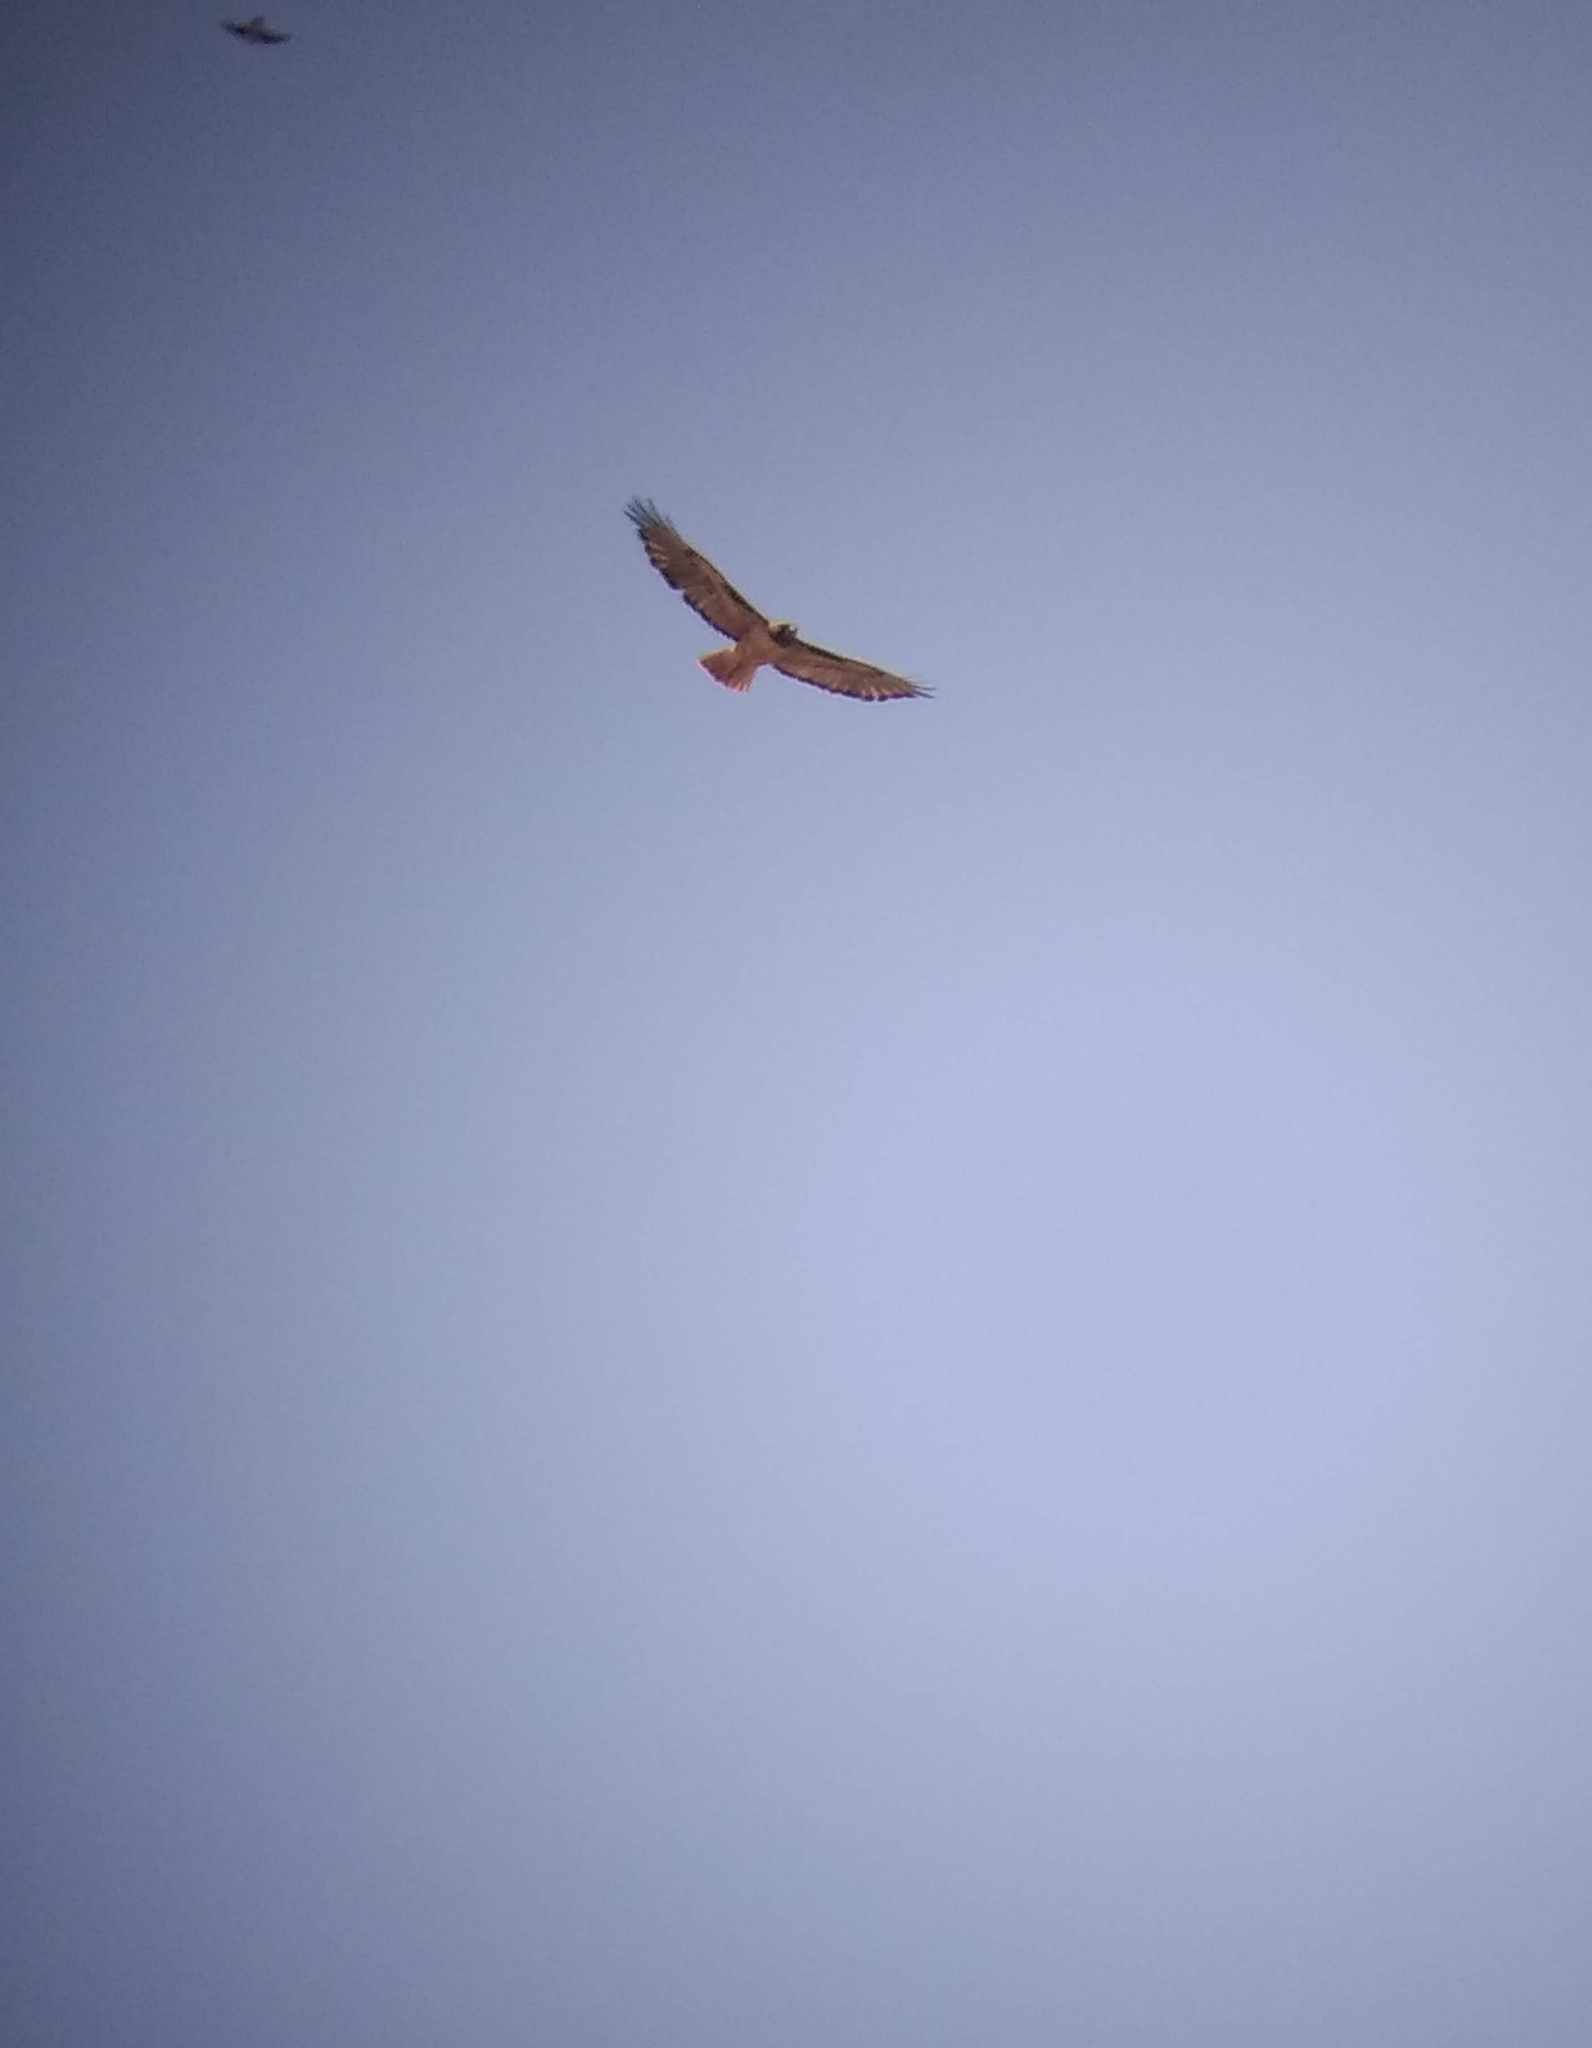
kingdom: Animalia
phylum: Chordata
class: Aves
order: Accipitriformes
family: Accipitridae
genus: Buteo
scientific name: Buteo jamaicensis
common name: Red-tailed hawk
